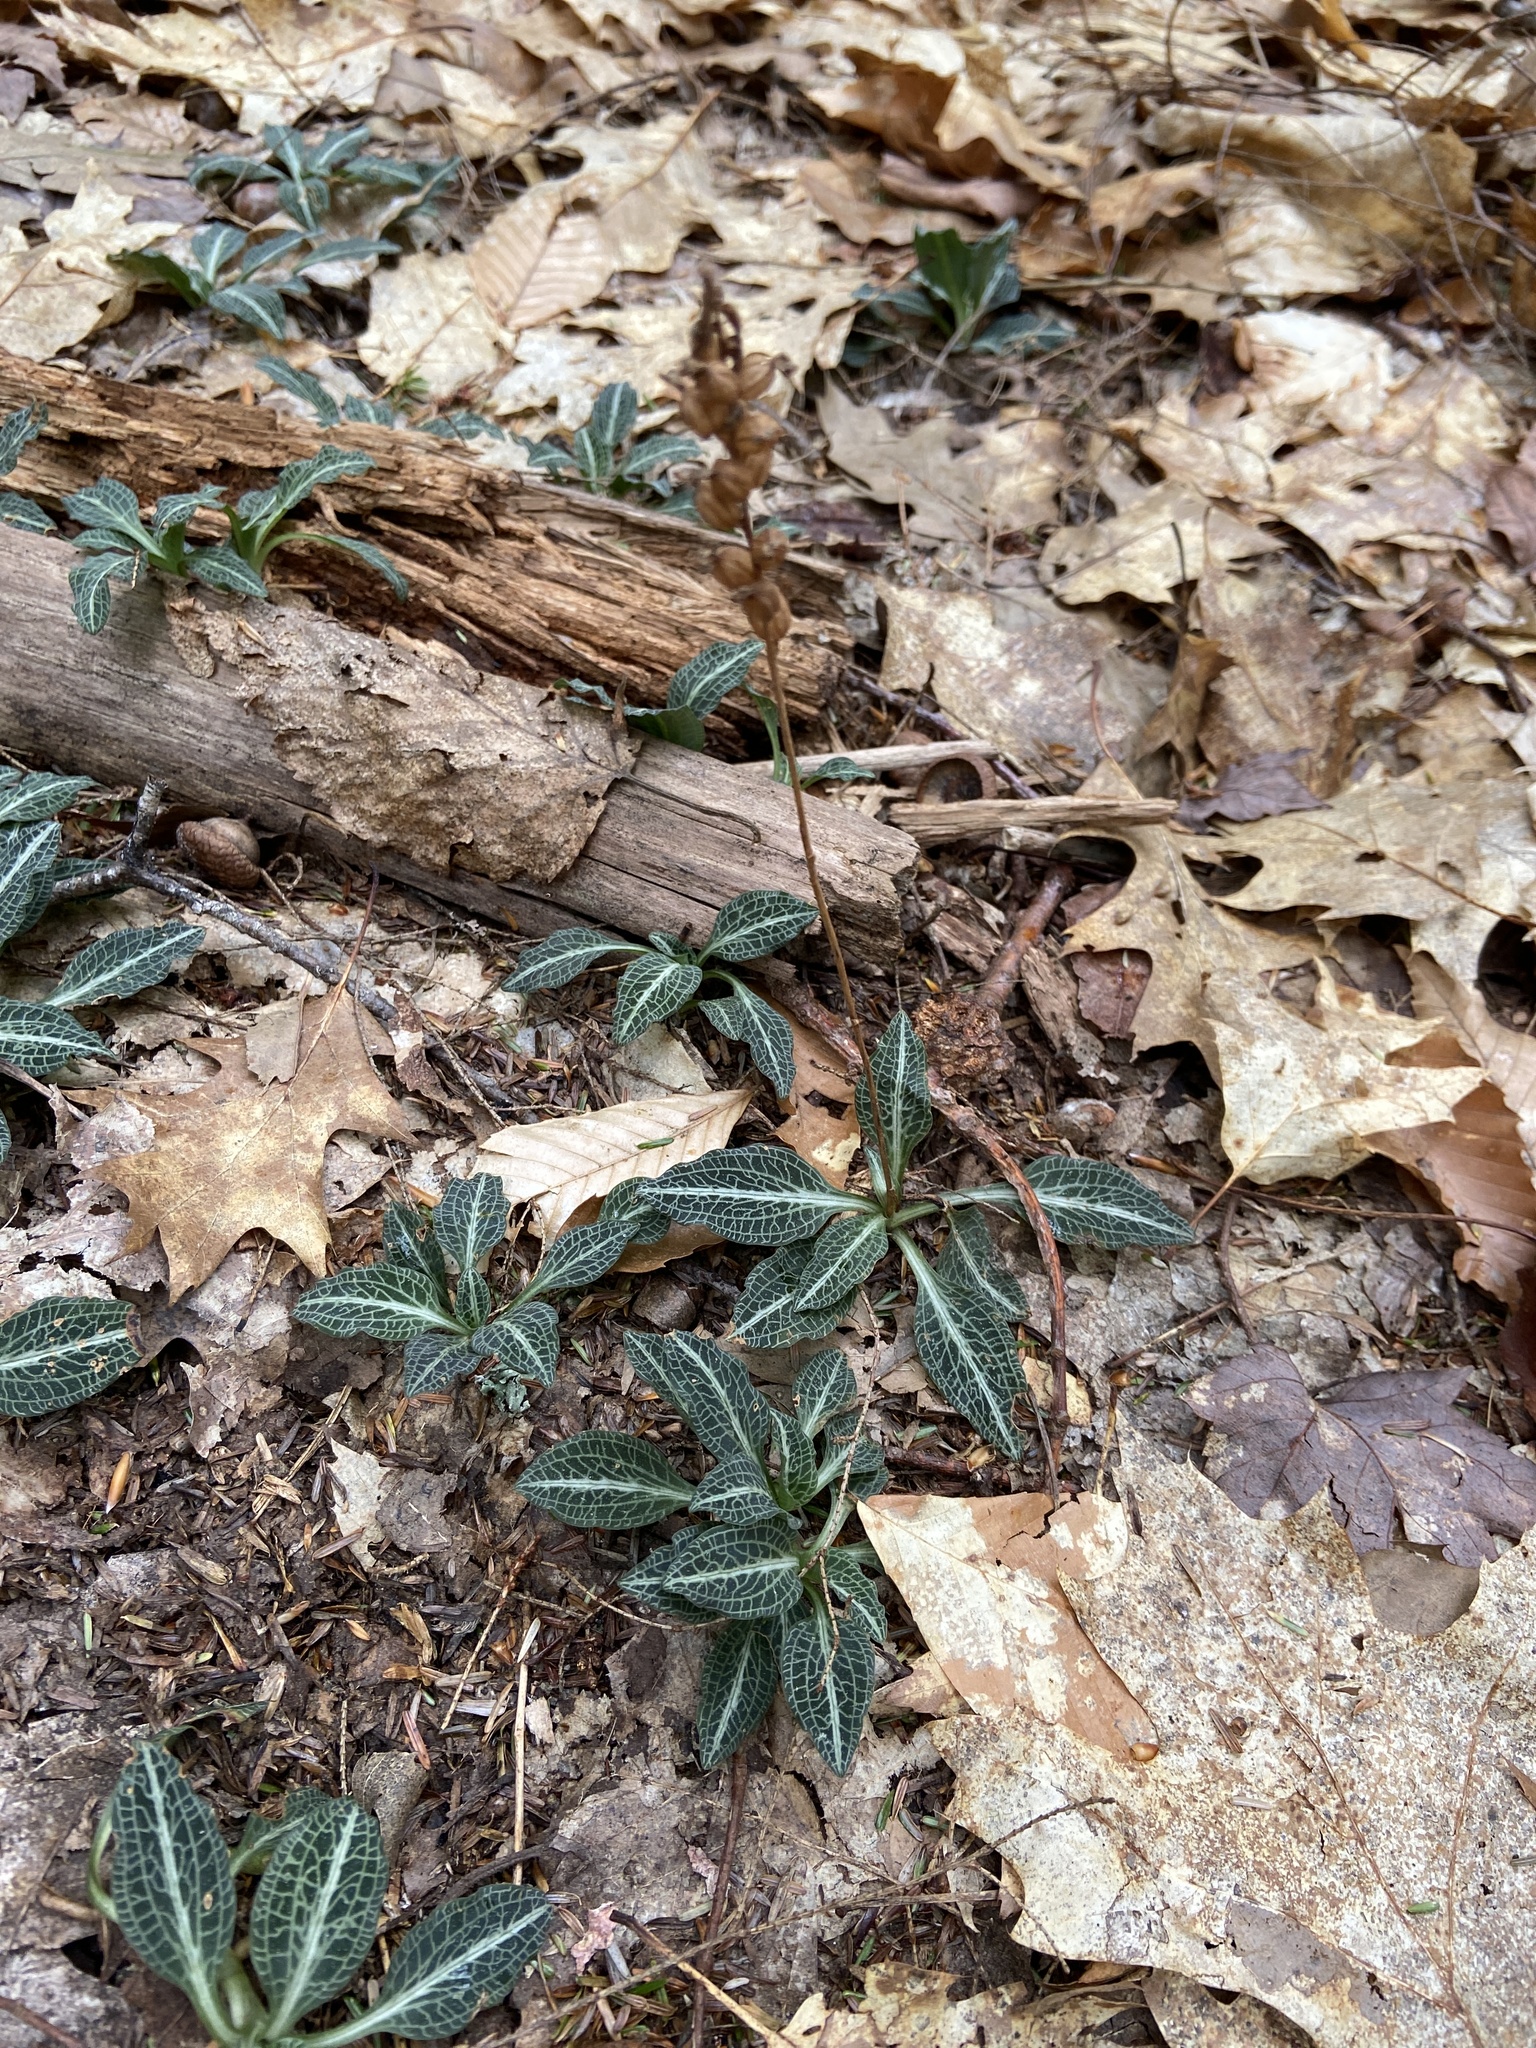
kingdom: Plantae
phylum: Tracheophyta
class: Liliopsida
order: Asparagales
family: Orchidaceae
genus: Goodyera
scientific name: Goodyera pubescens
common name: Downy rattlesnake-plantain
